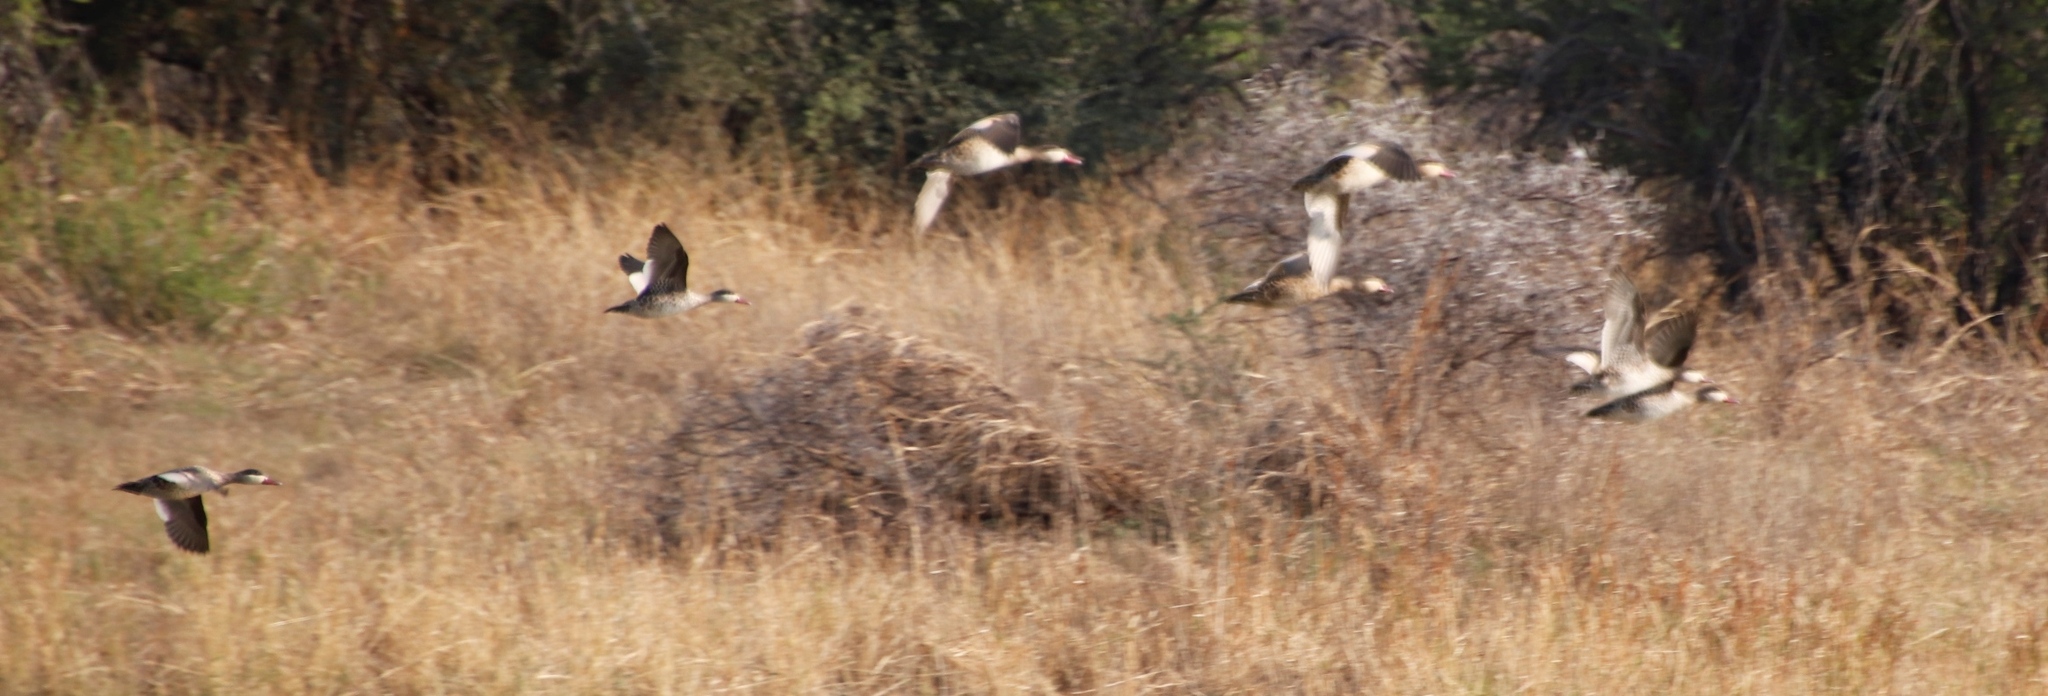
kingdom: Animalia
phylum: Chordata
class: Aves
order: Anseriformes
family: Anatidae
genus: Anas
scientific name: Anas erythrorhyncha
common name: Red-billed teal
